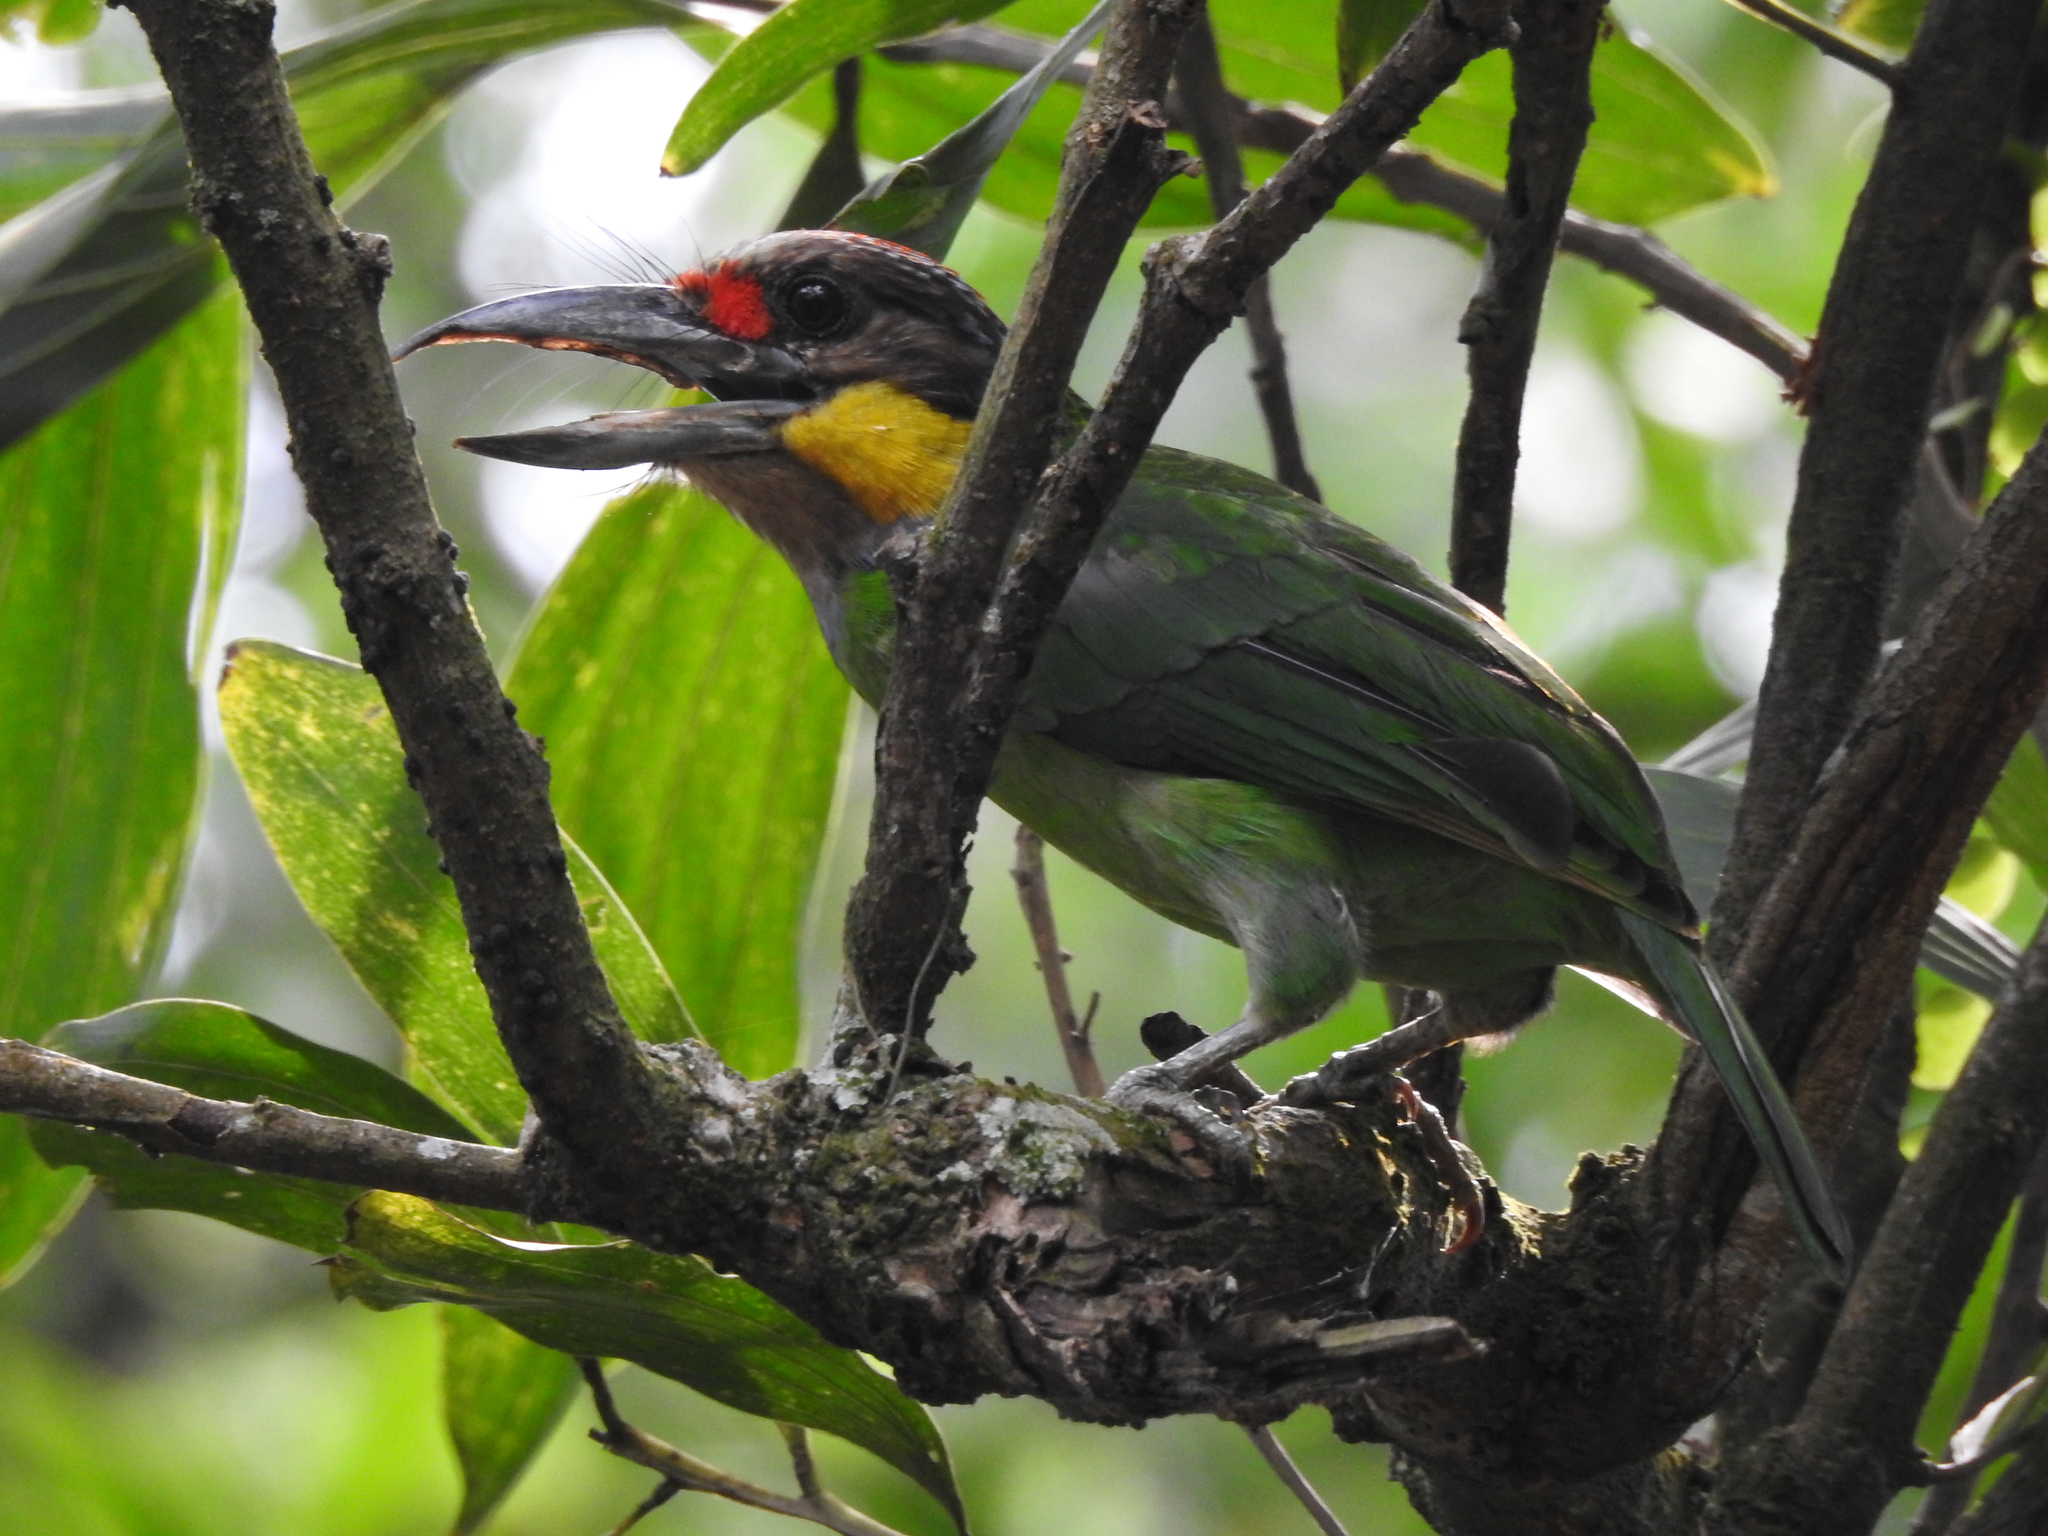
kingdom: Animalia
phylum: Chordata
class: Aves
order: Piciformes
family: Megalaimidae
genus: Psilopogon
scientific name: Psilopogon chrysopogon
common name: Golden-whiskered barbet
